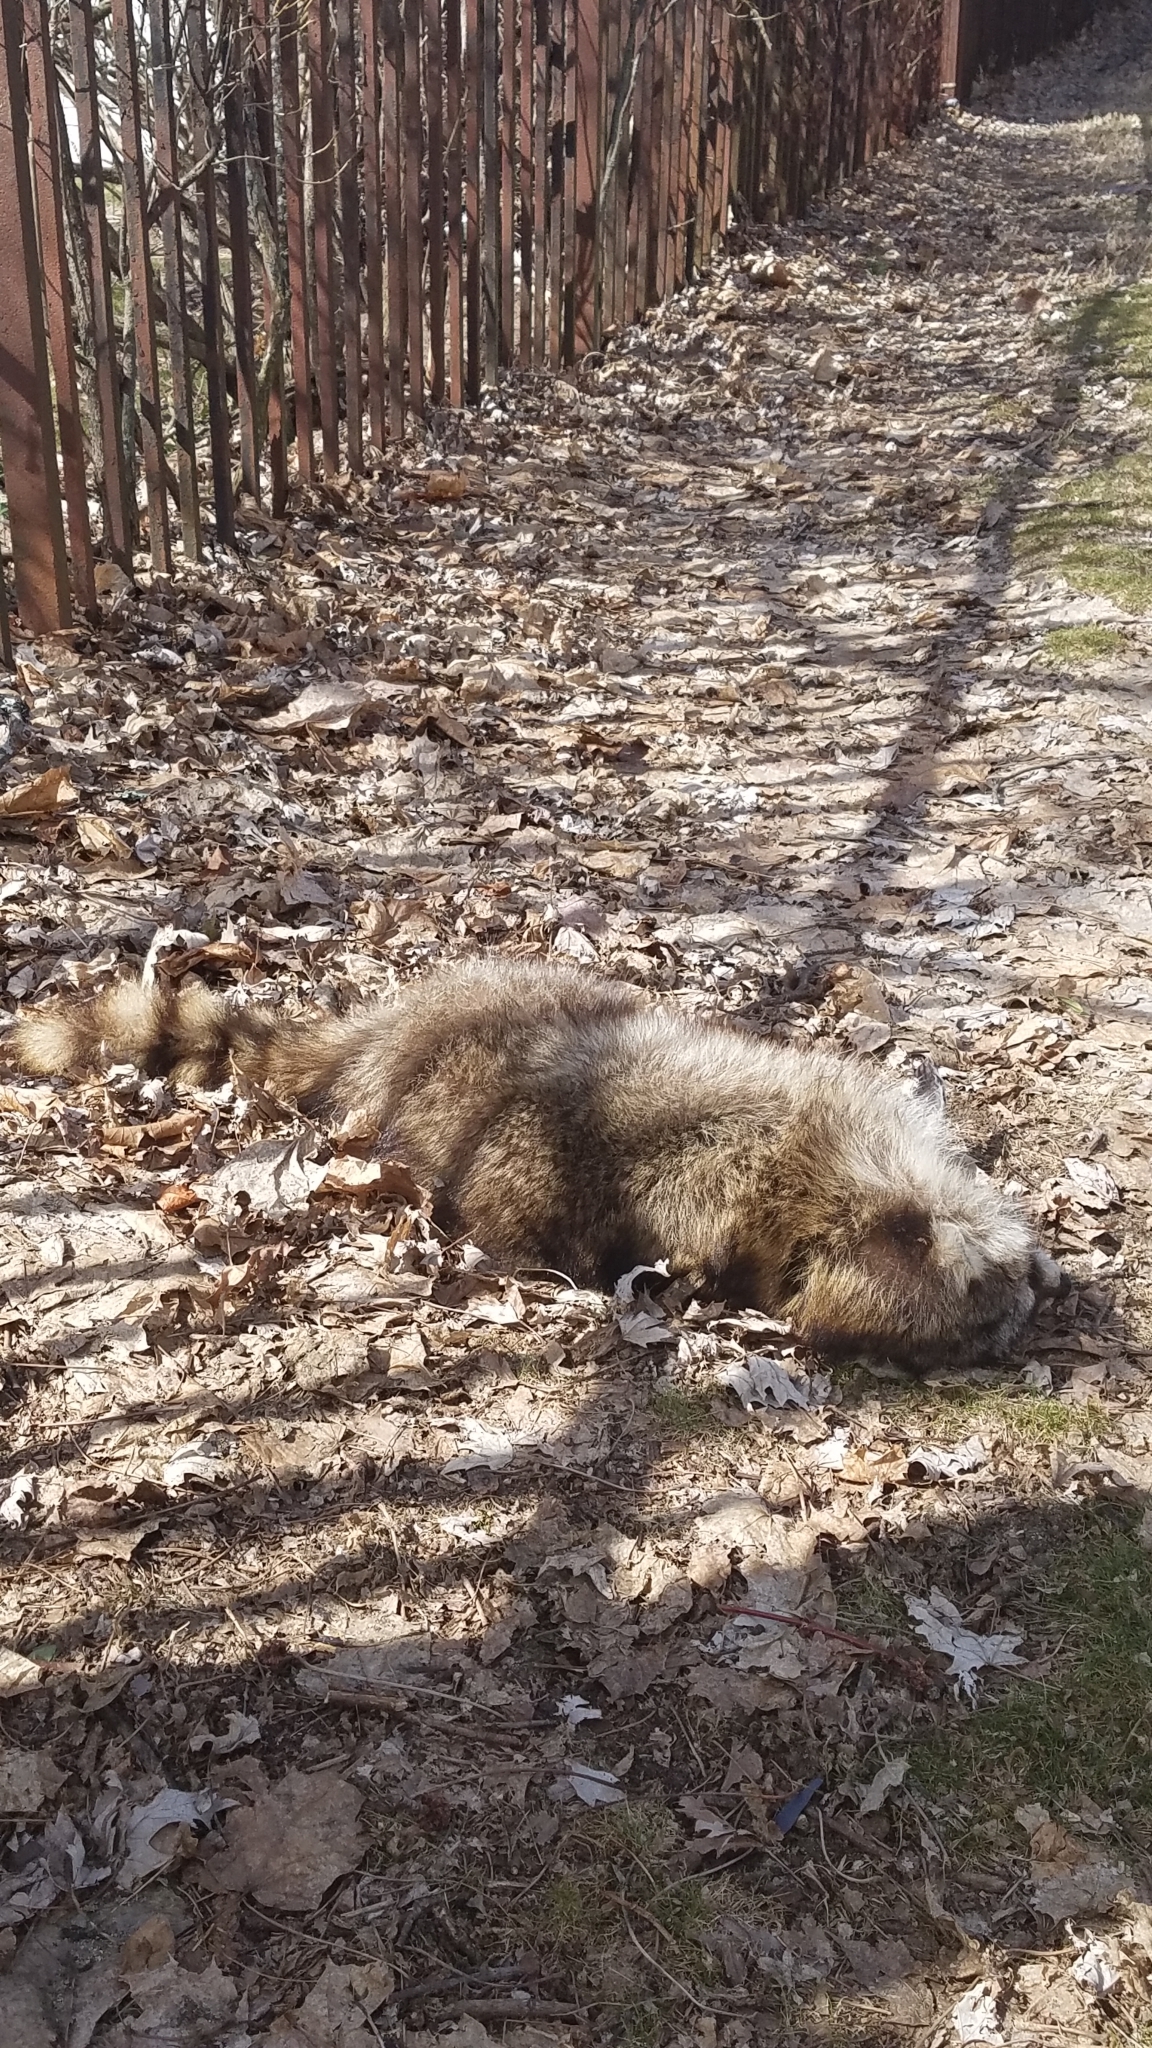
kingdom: Animalia
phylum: Chordata
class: Mammalia
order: Carnivora
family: Procyonidae
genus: Procyon
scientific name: Procyon lotor
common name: Raccoon
